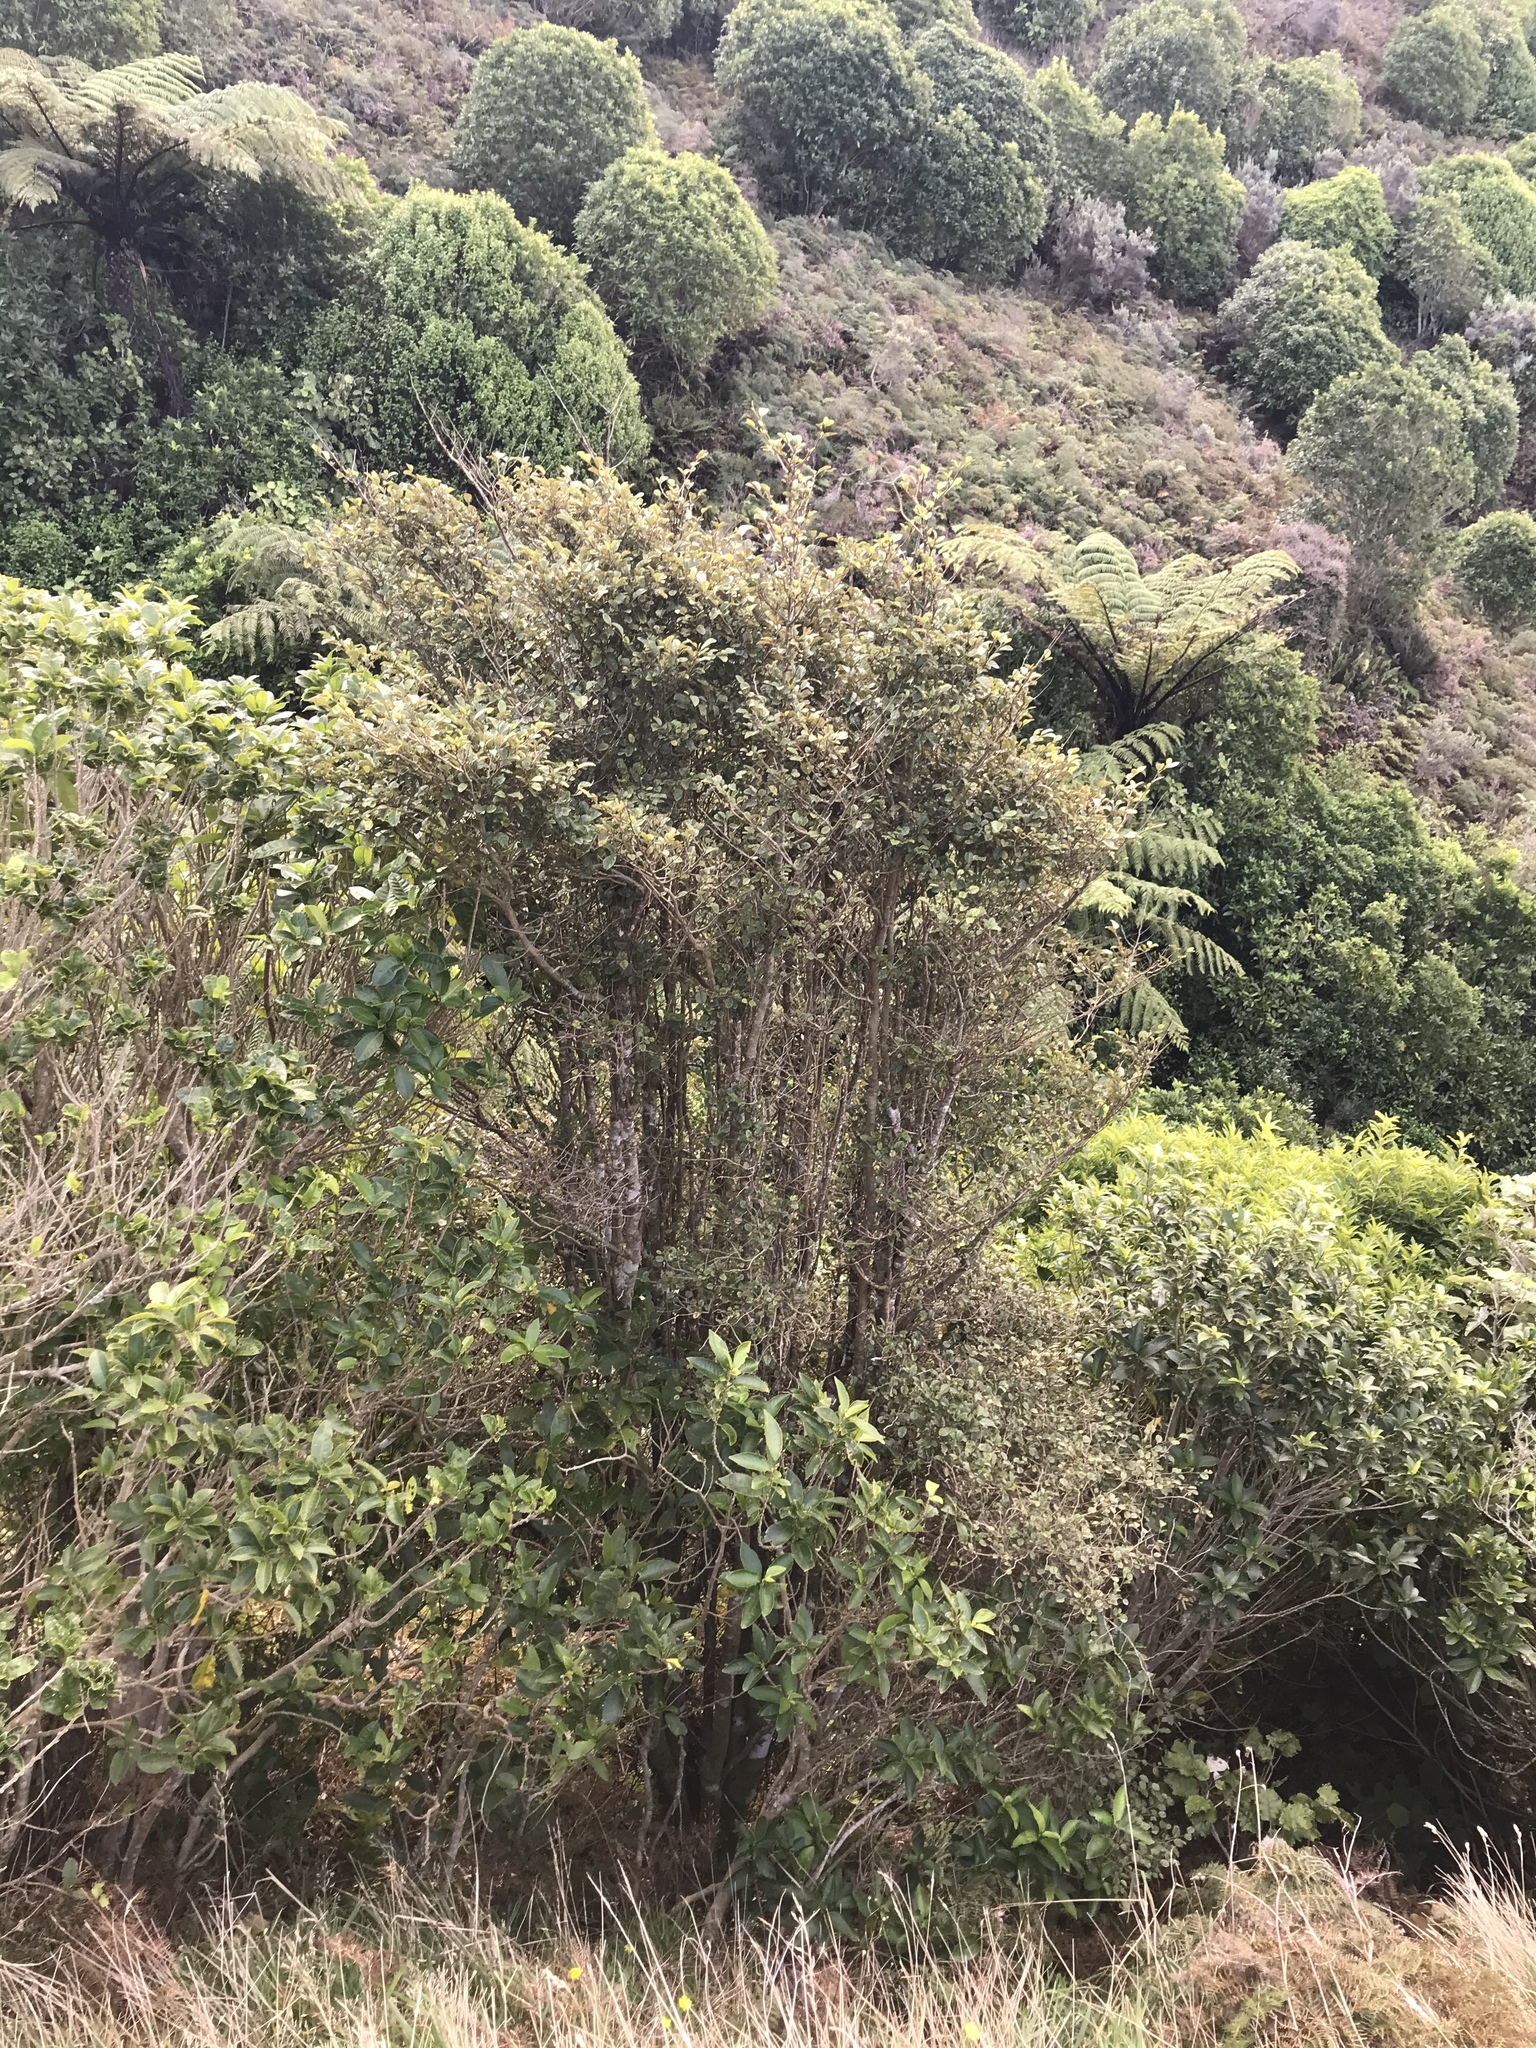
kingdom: Plantae
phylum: Tracheophyta
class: Magnoliopsida
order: Asterales
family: Rousseaceae
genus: Carpodetus
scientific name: Carpodetus serratus
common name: White mapau
